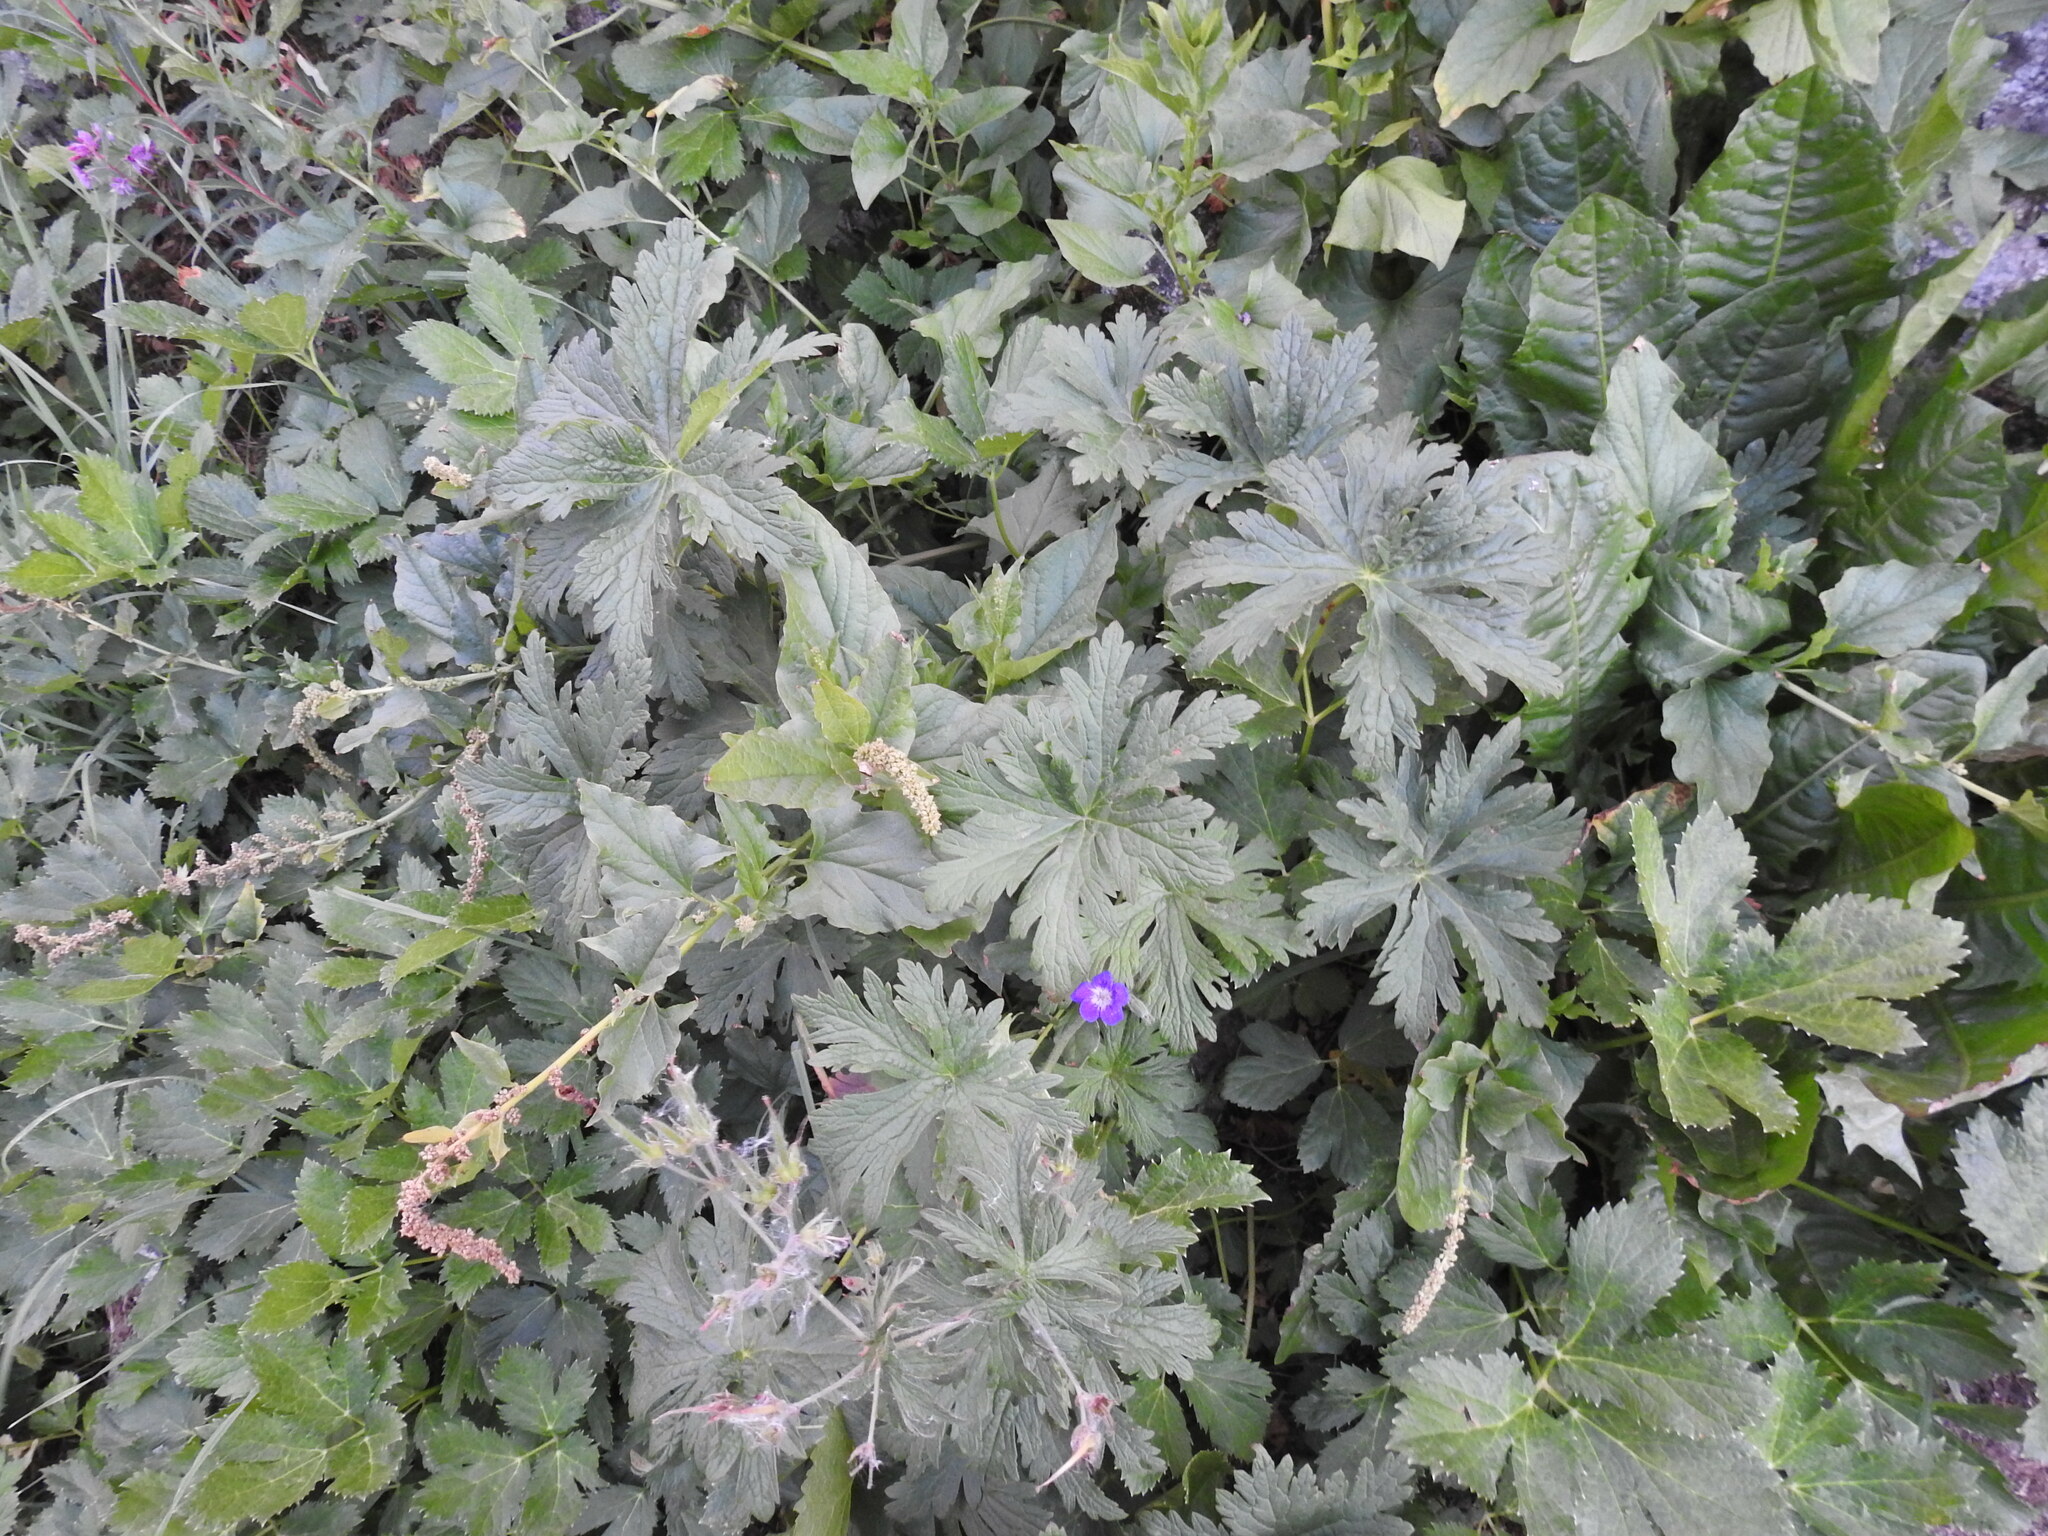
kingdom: Plantae
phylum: Tracheophyta
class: Magnoliopsida
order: Geraniales
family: Geraniaceae
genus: Geranium
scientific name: Geranium sylvaticum
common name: Wood crane's-bill
